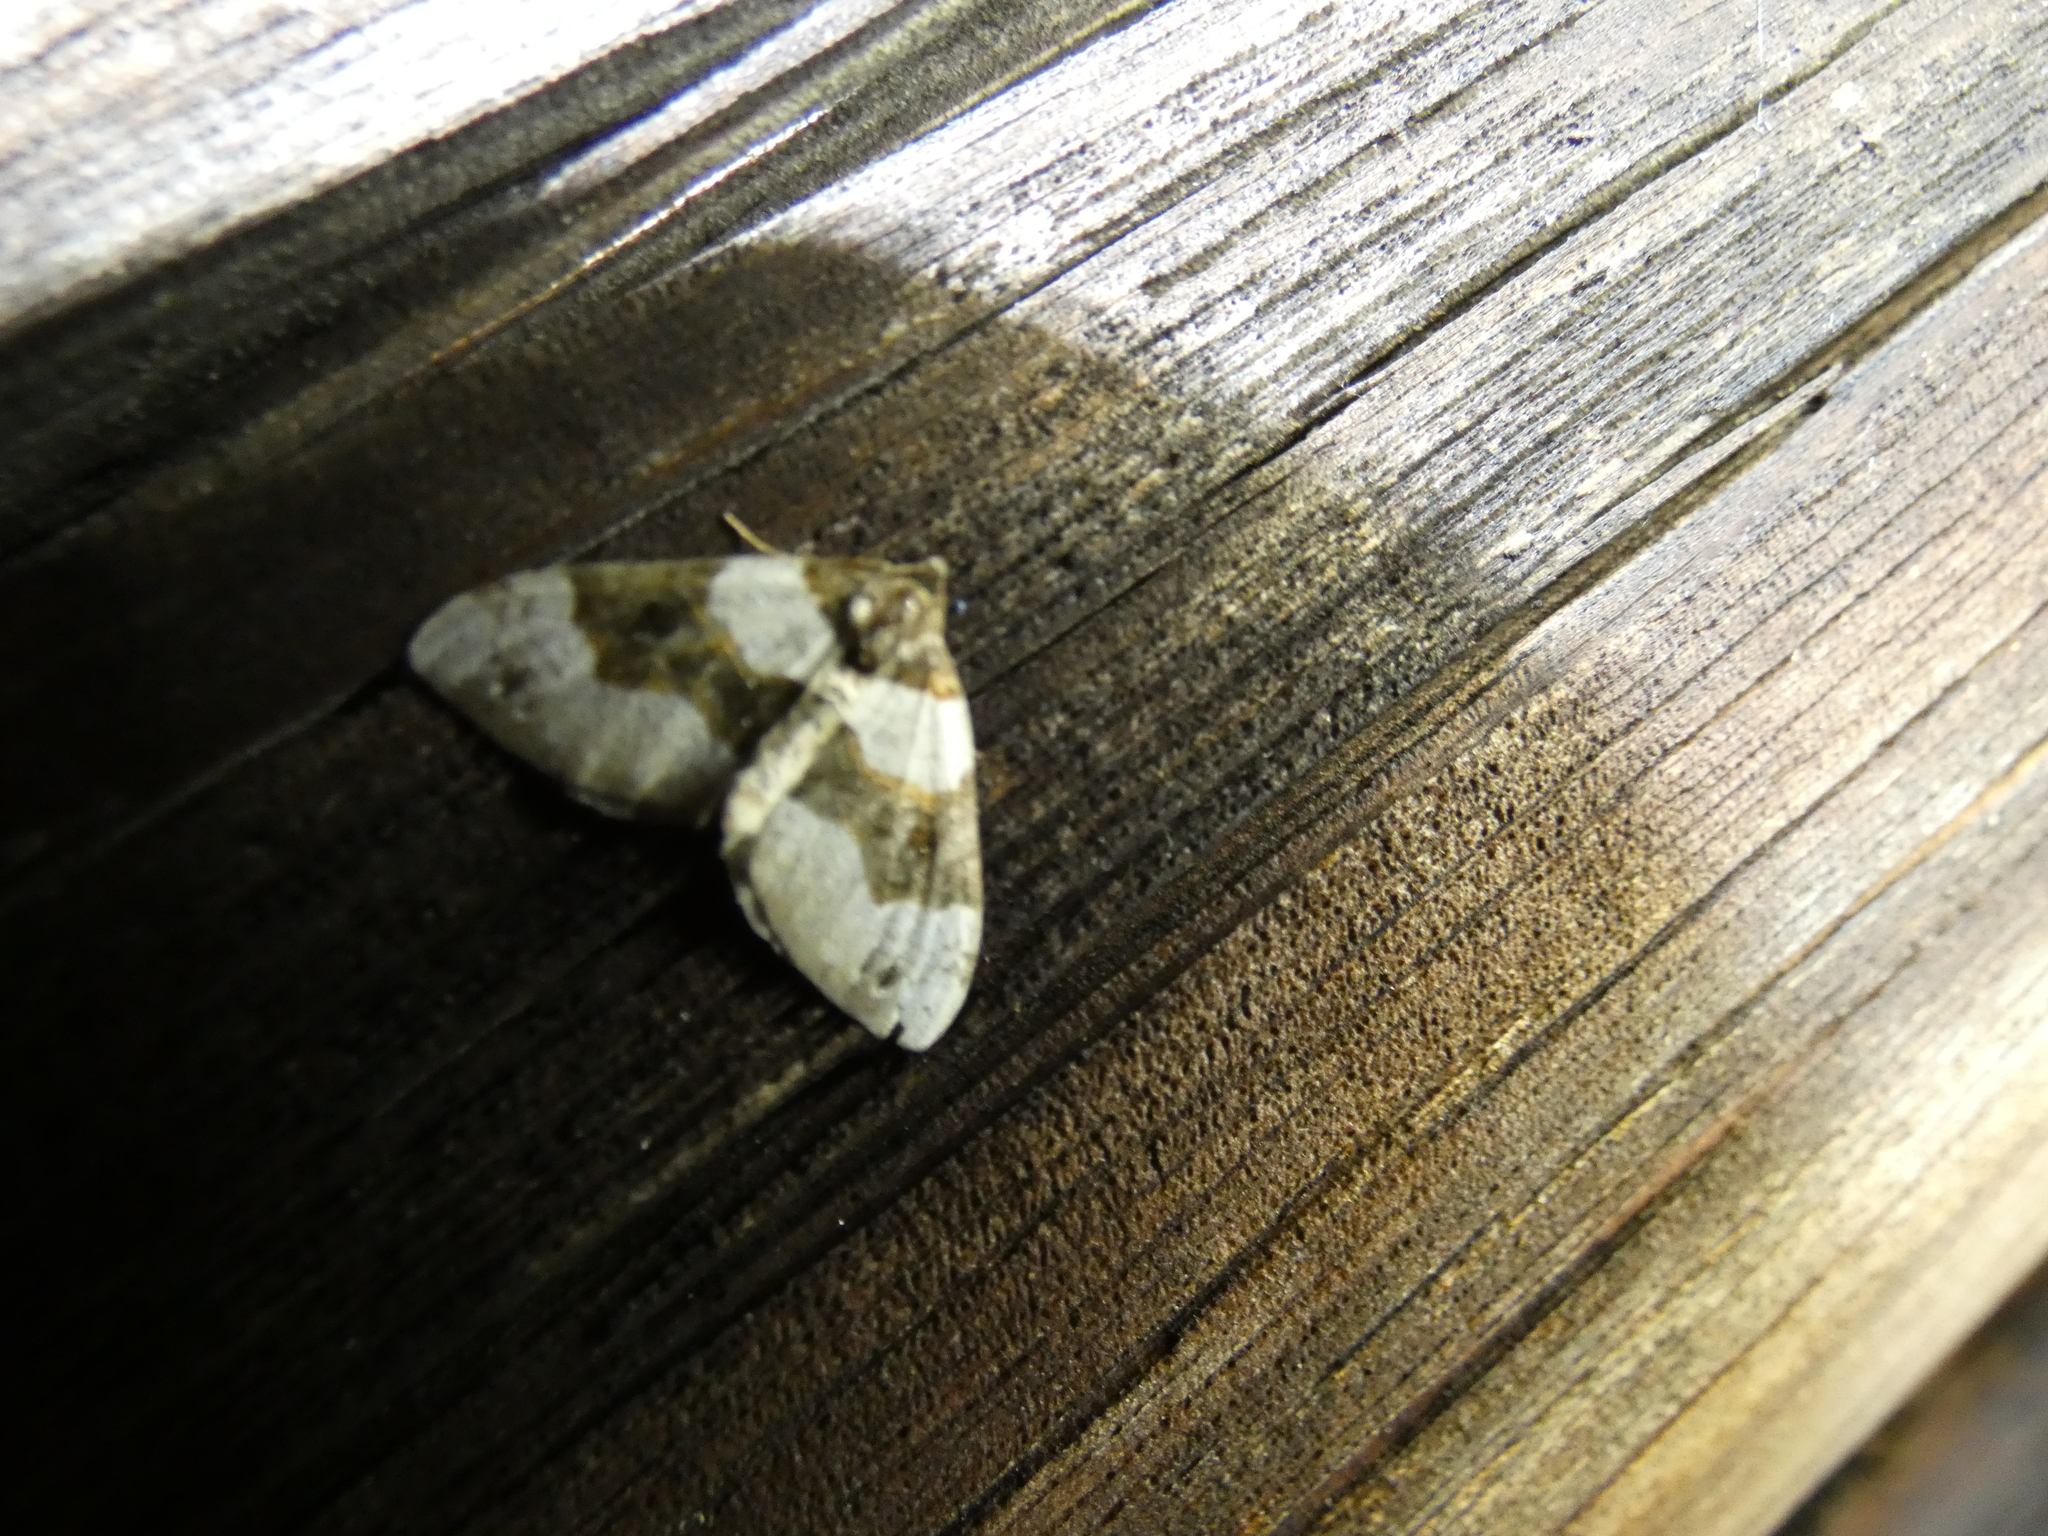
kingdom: Animalia
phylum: Arthropoda
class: Insecta
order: Lepidoptera
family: Geometridae
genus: Cosmorhoe
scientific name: Cosmorhoe ocellata
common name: Purple bar
